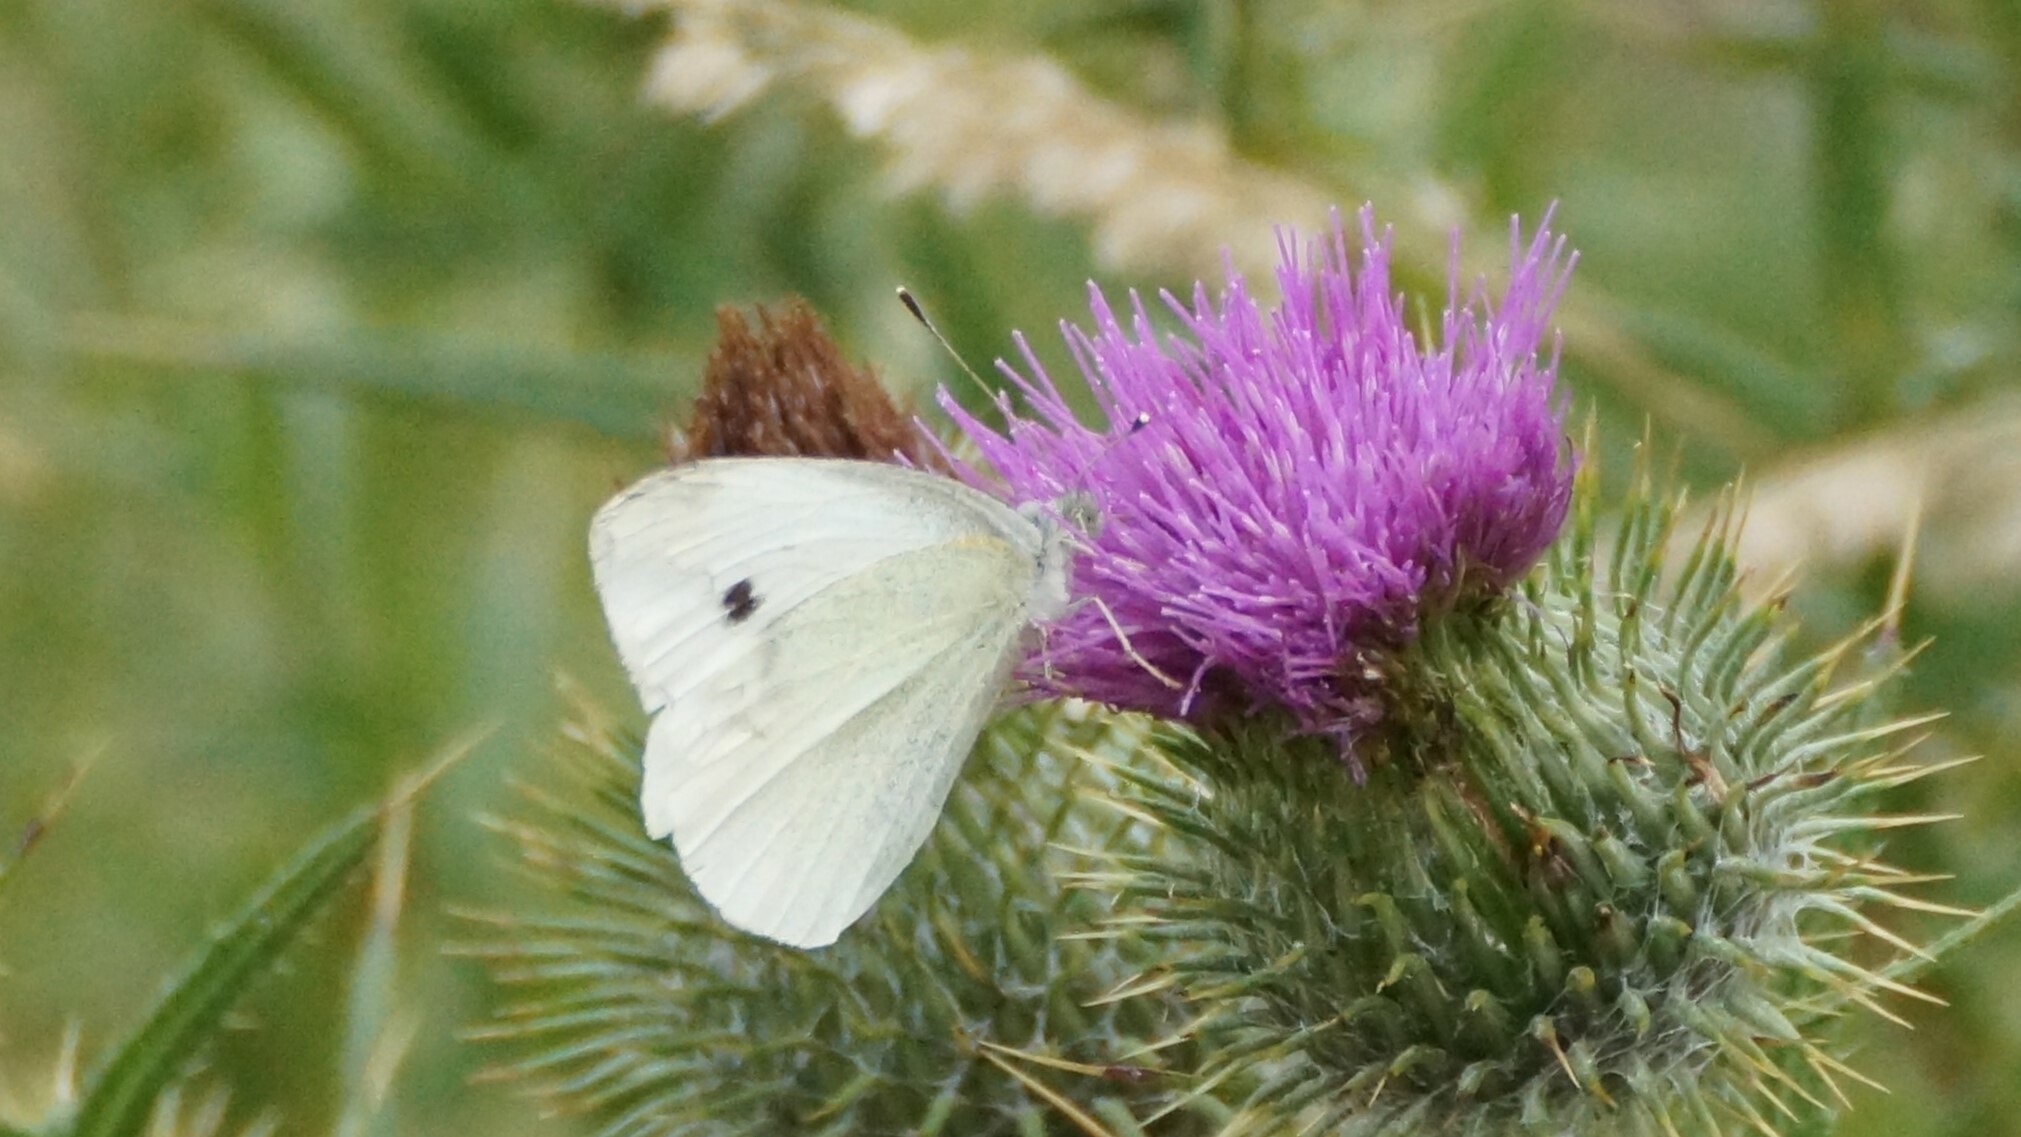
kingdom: Animalia
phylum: Arthropoda
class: Insecta
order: Lepidoptera
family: Pieridae
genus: Pieris
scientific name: Pieris rapae
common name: Small white
